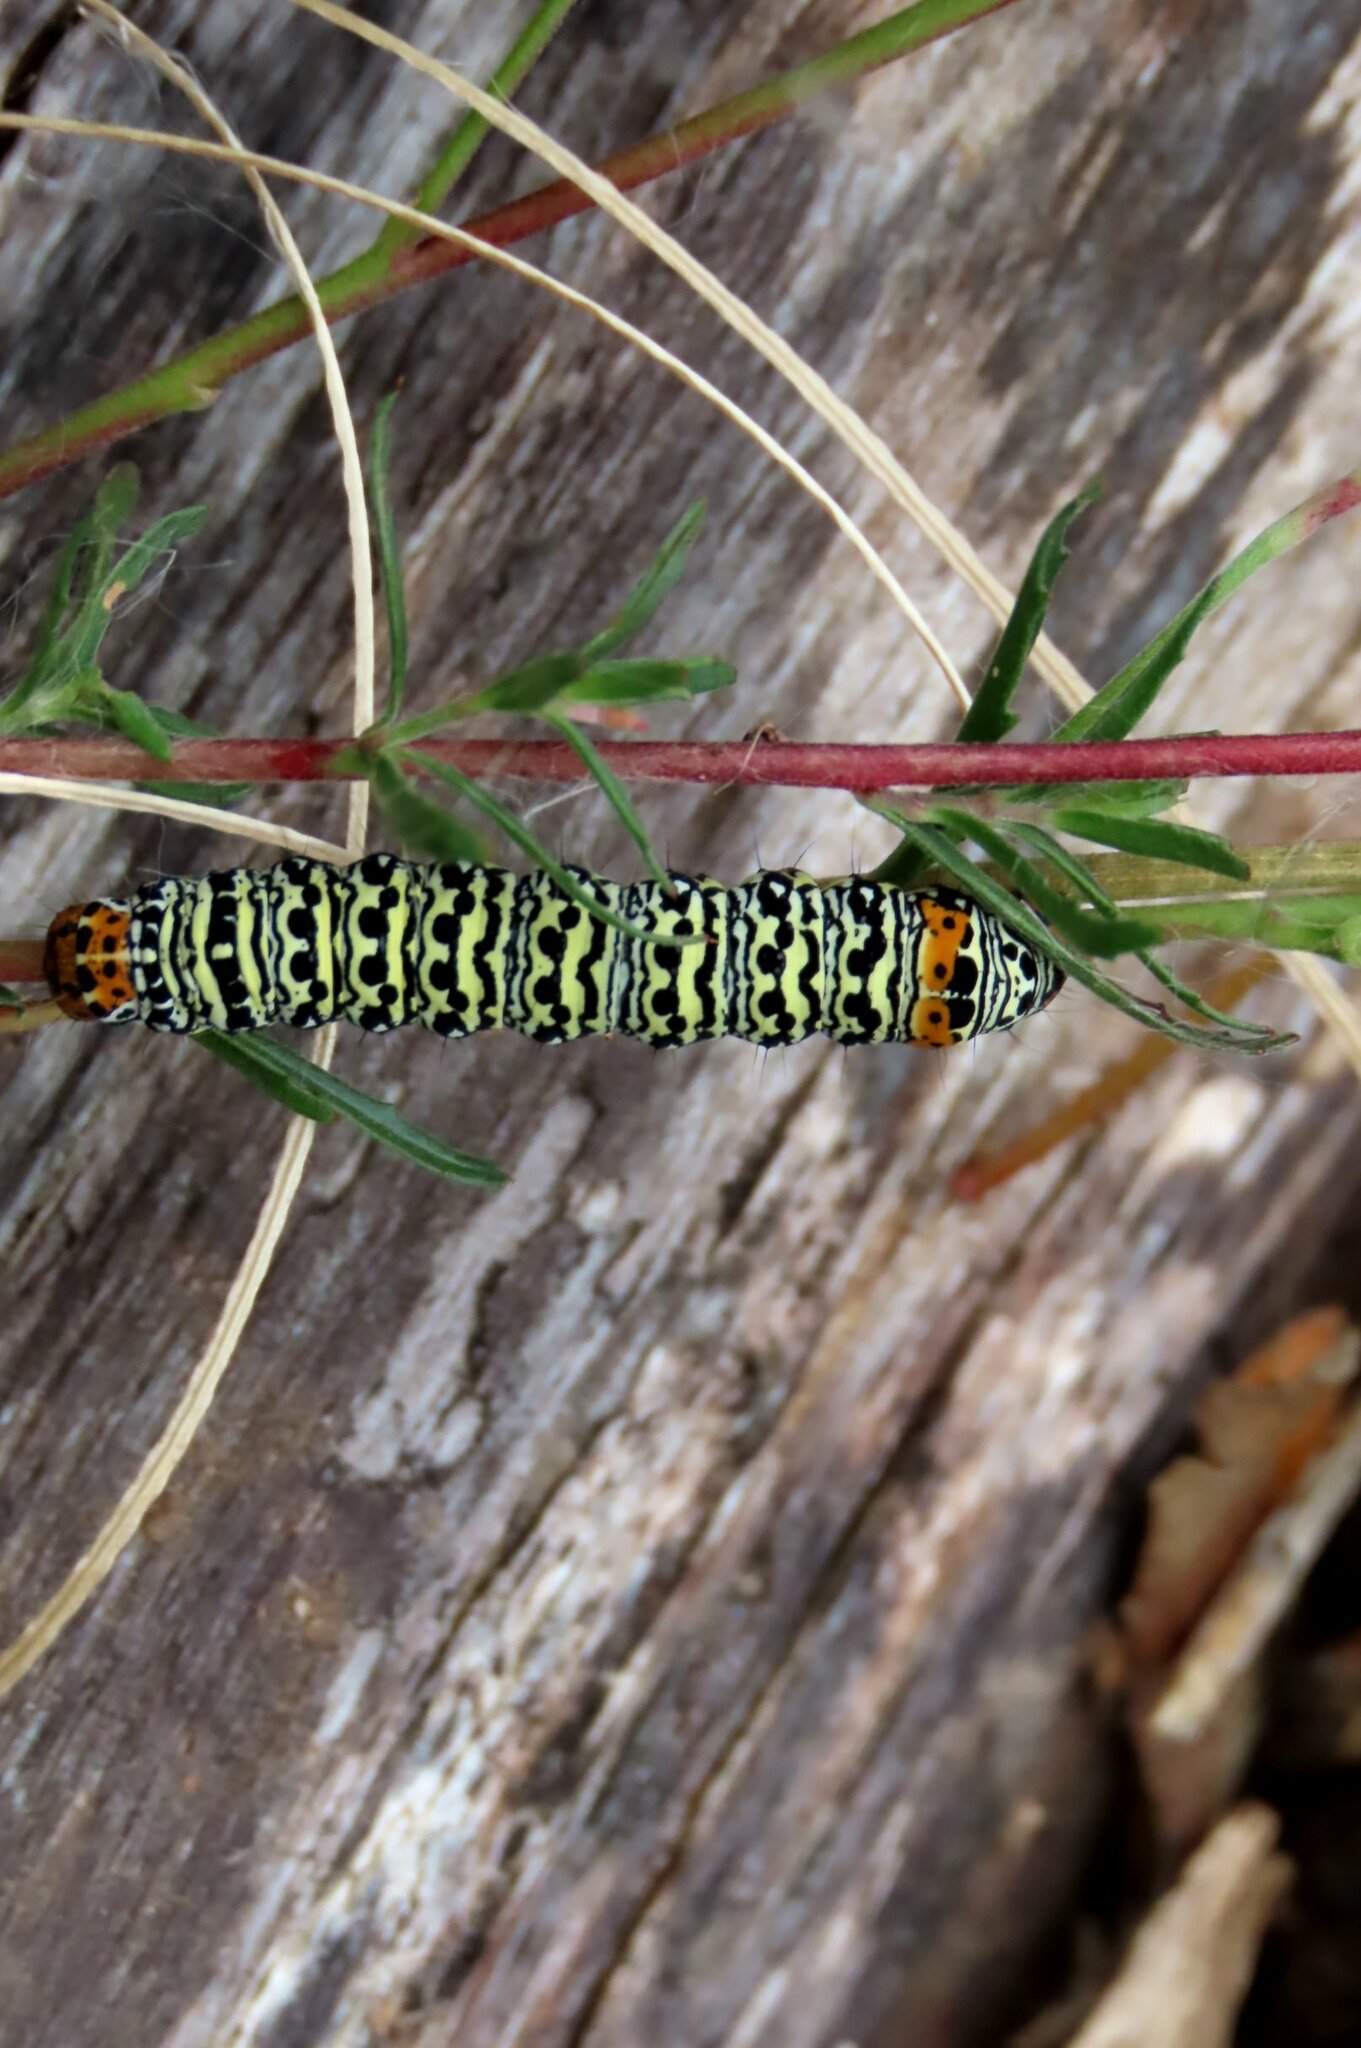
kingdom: Animalia
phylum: Arthropoda
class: Insecta
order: Lepidoptera
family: Noctuidae
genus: Phalaenoides
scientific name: Phalaenoides tristifica
